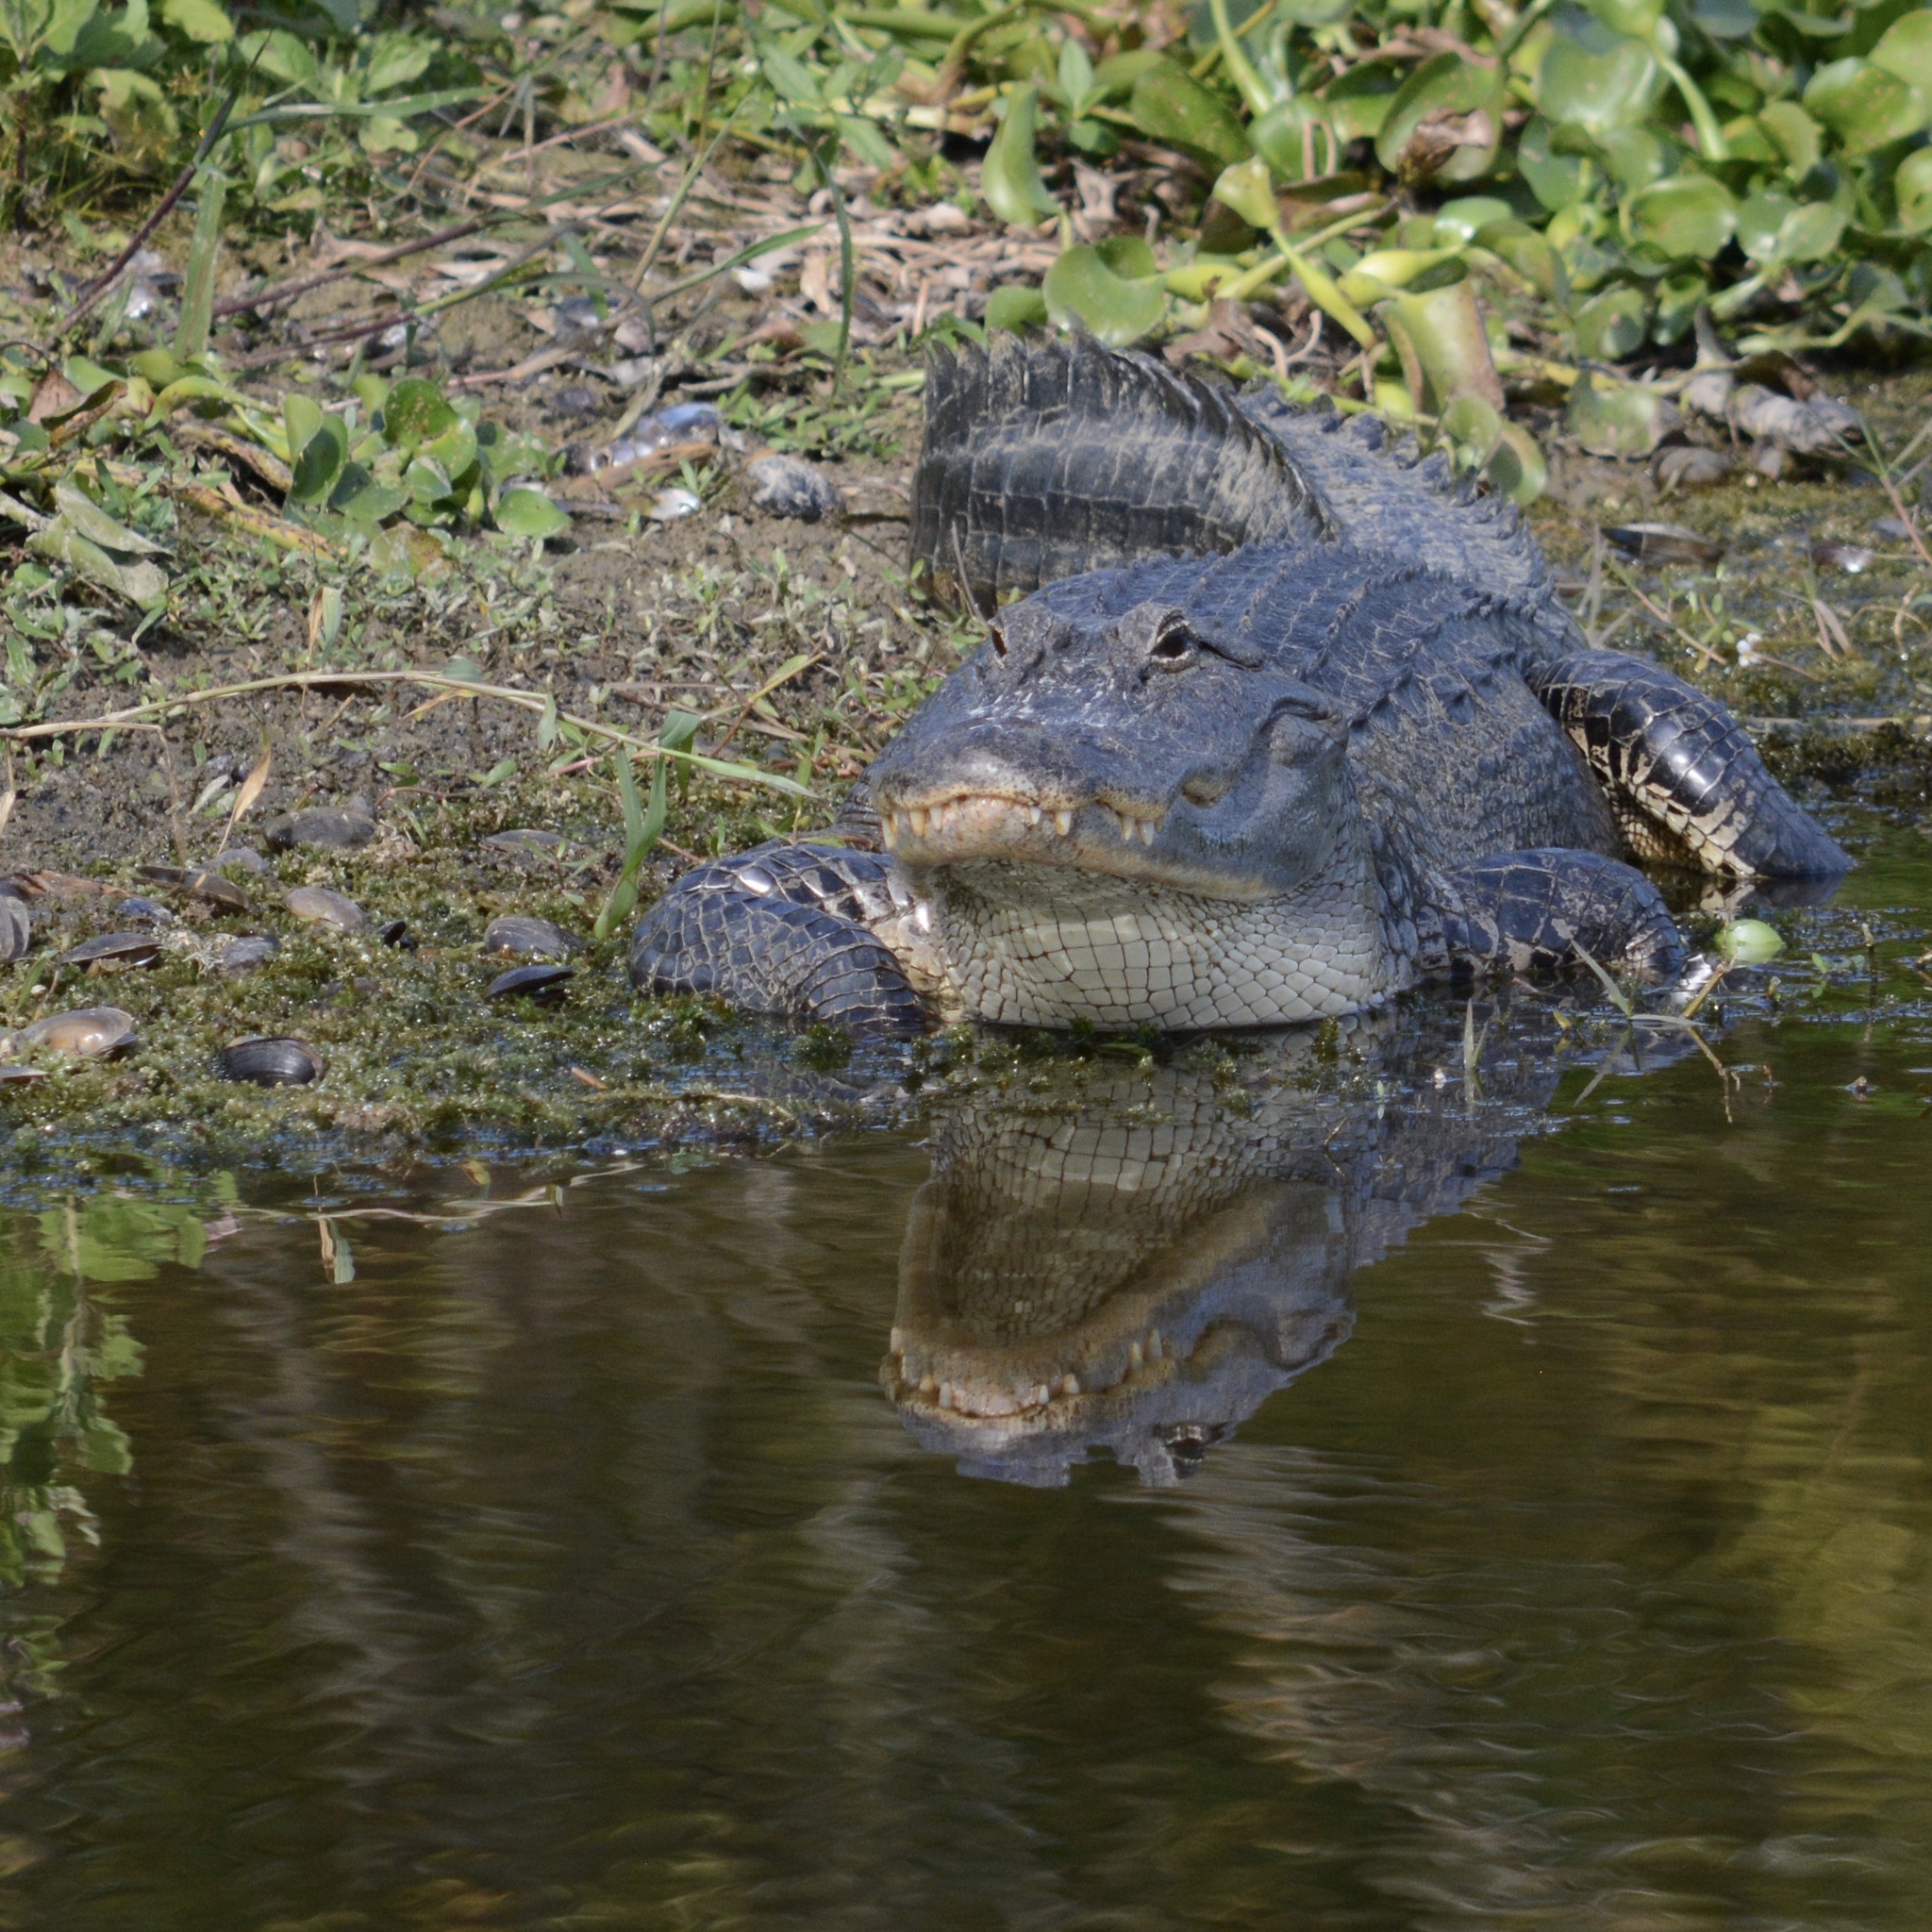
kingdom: Animalia
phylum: Chordata
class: Crocodylia
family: Alligatoridae
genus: Alligator
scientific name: Alligator mississippiensis
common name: American alligator
